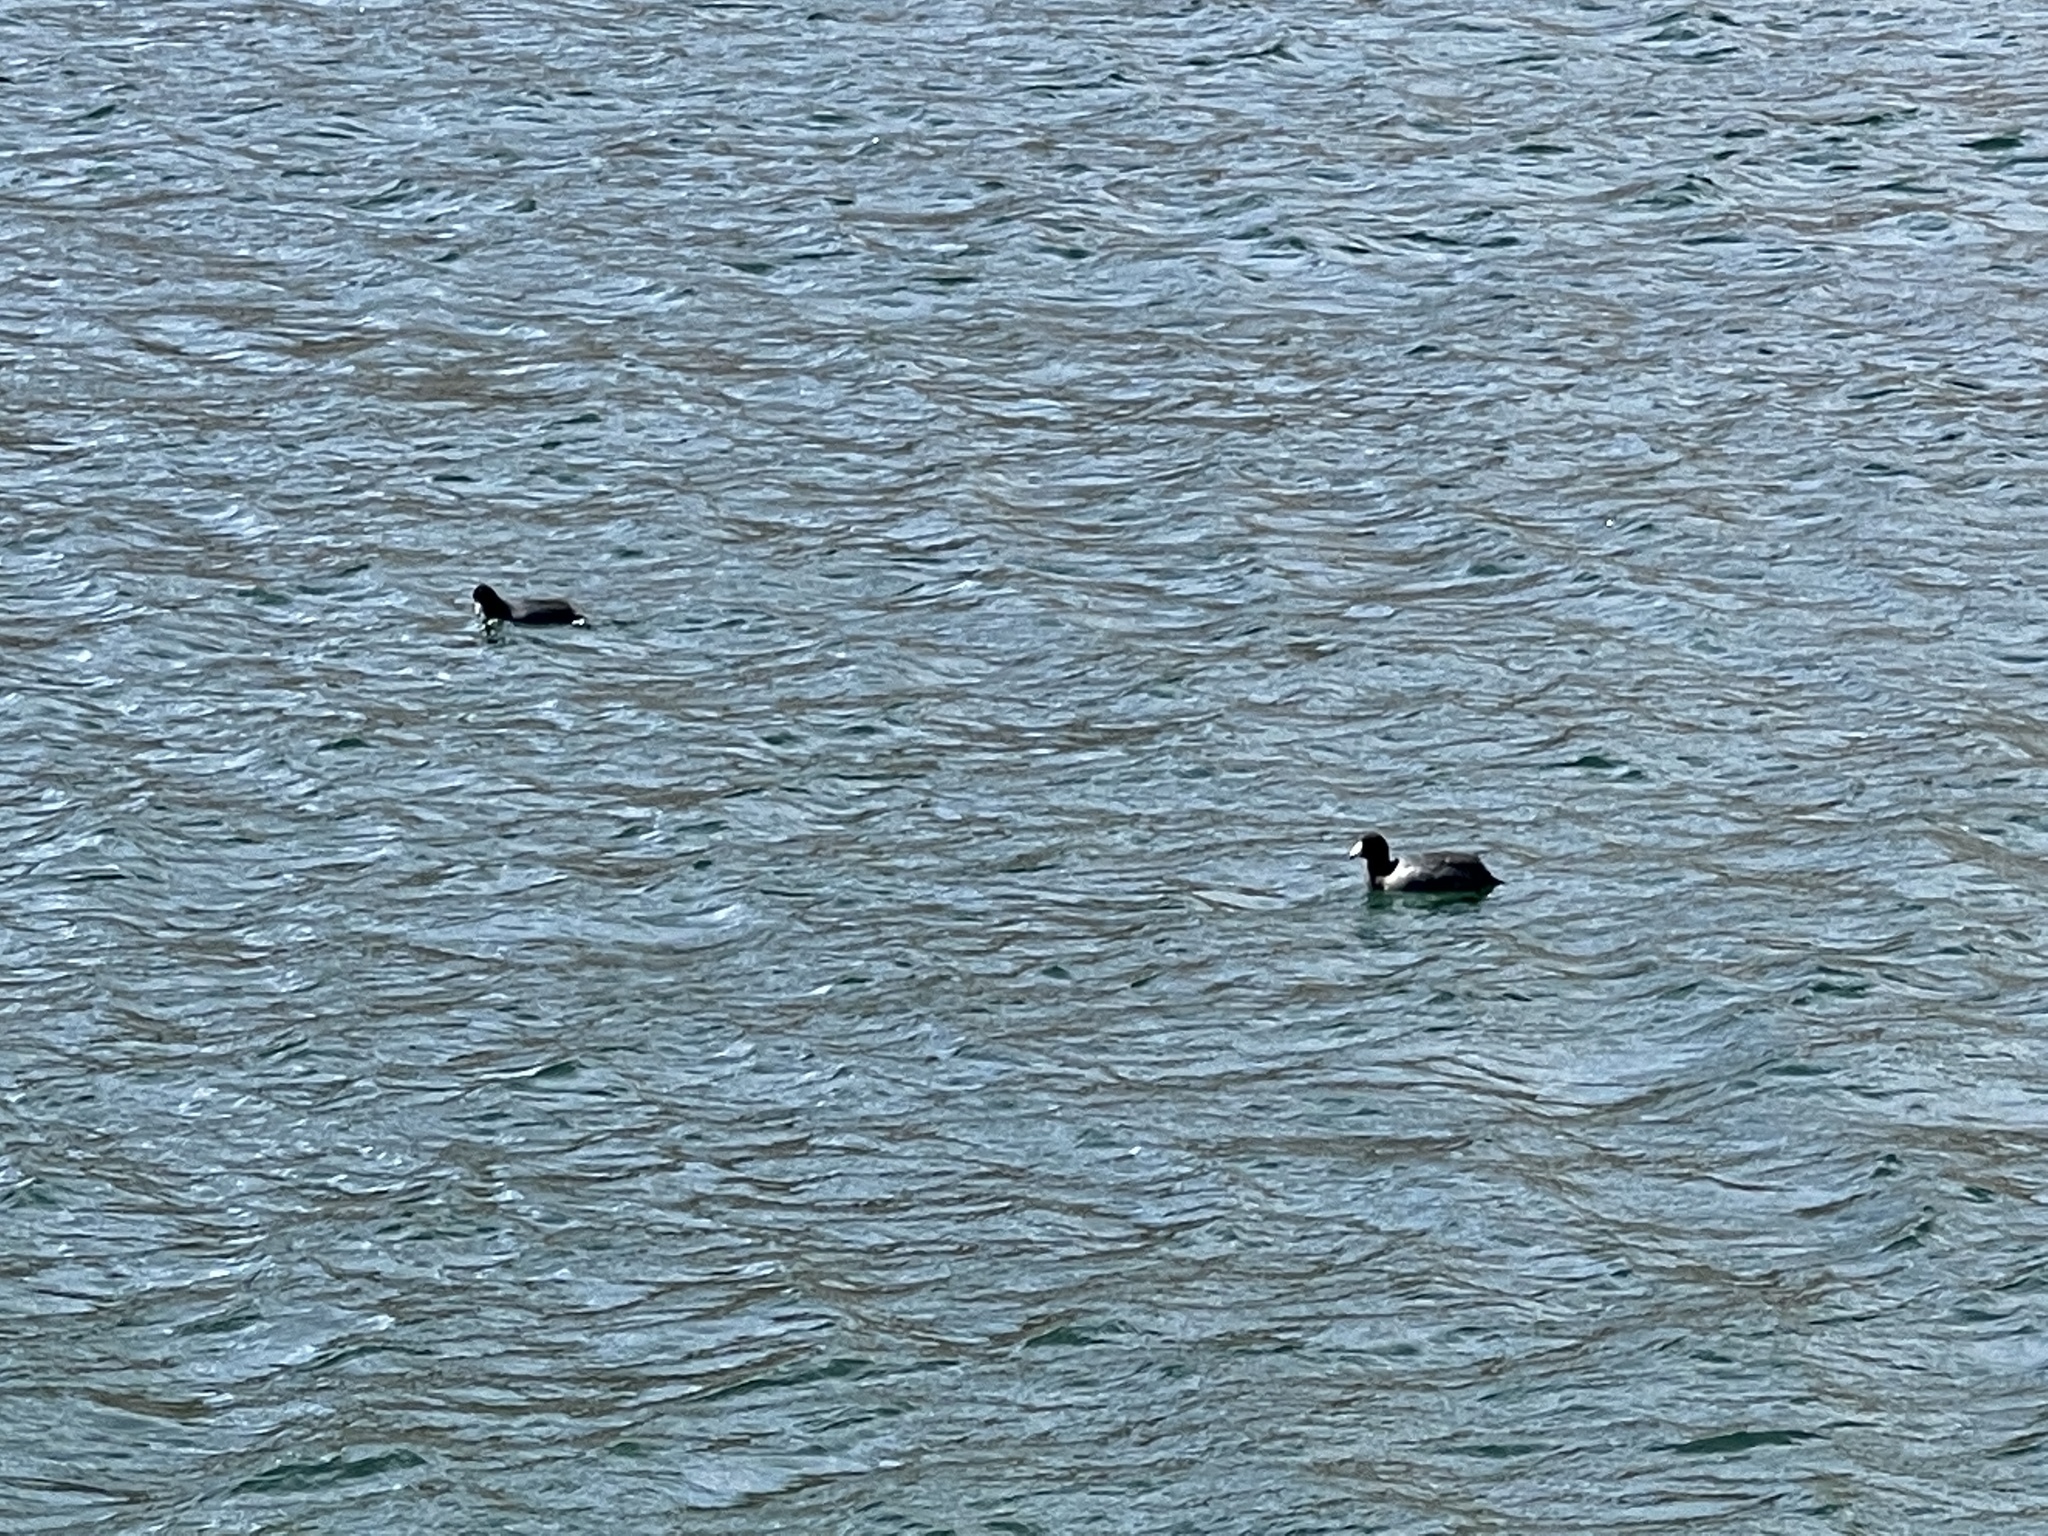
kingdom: Animalia
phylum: Chordata
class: Aves
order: Gruiformes
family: Rallidae
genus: Fulica
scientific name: Fulica americana
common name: American coot
